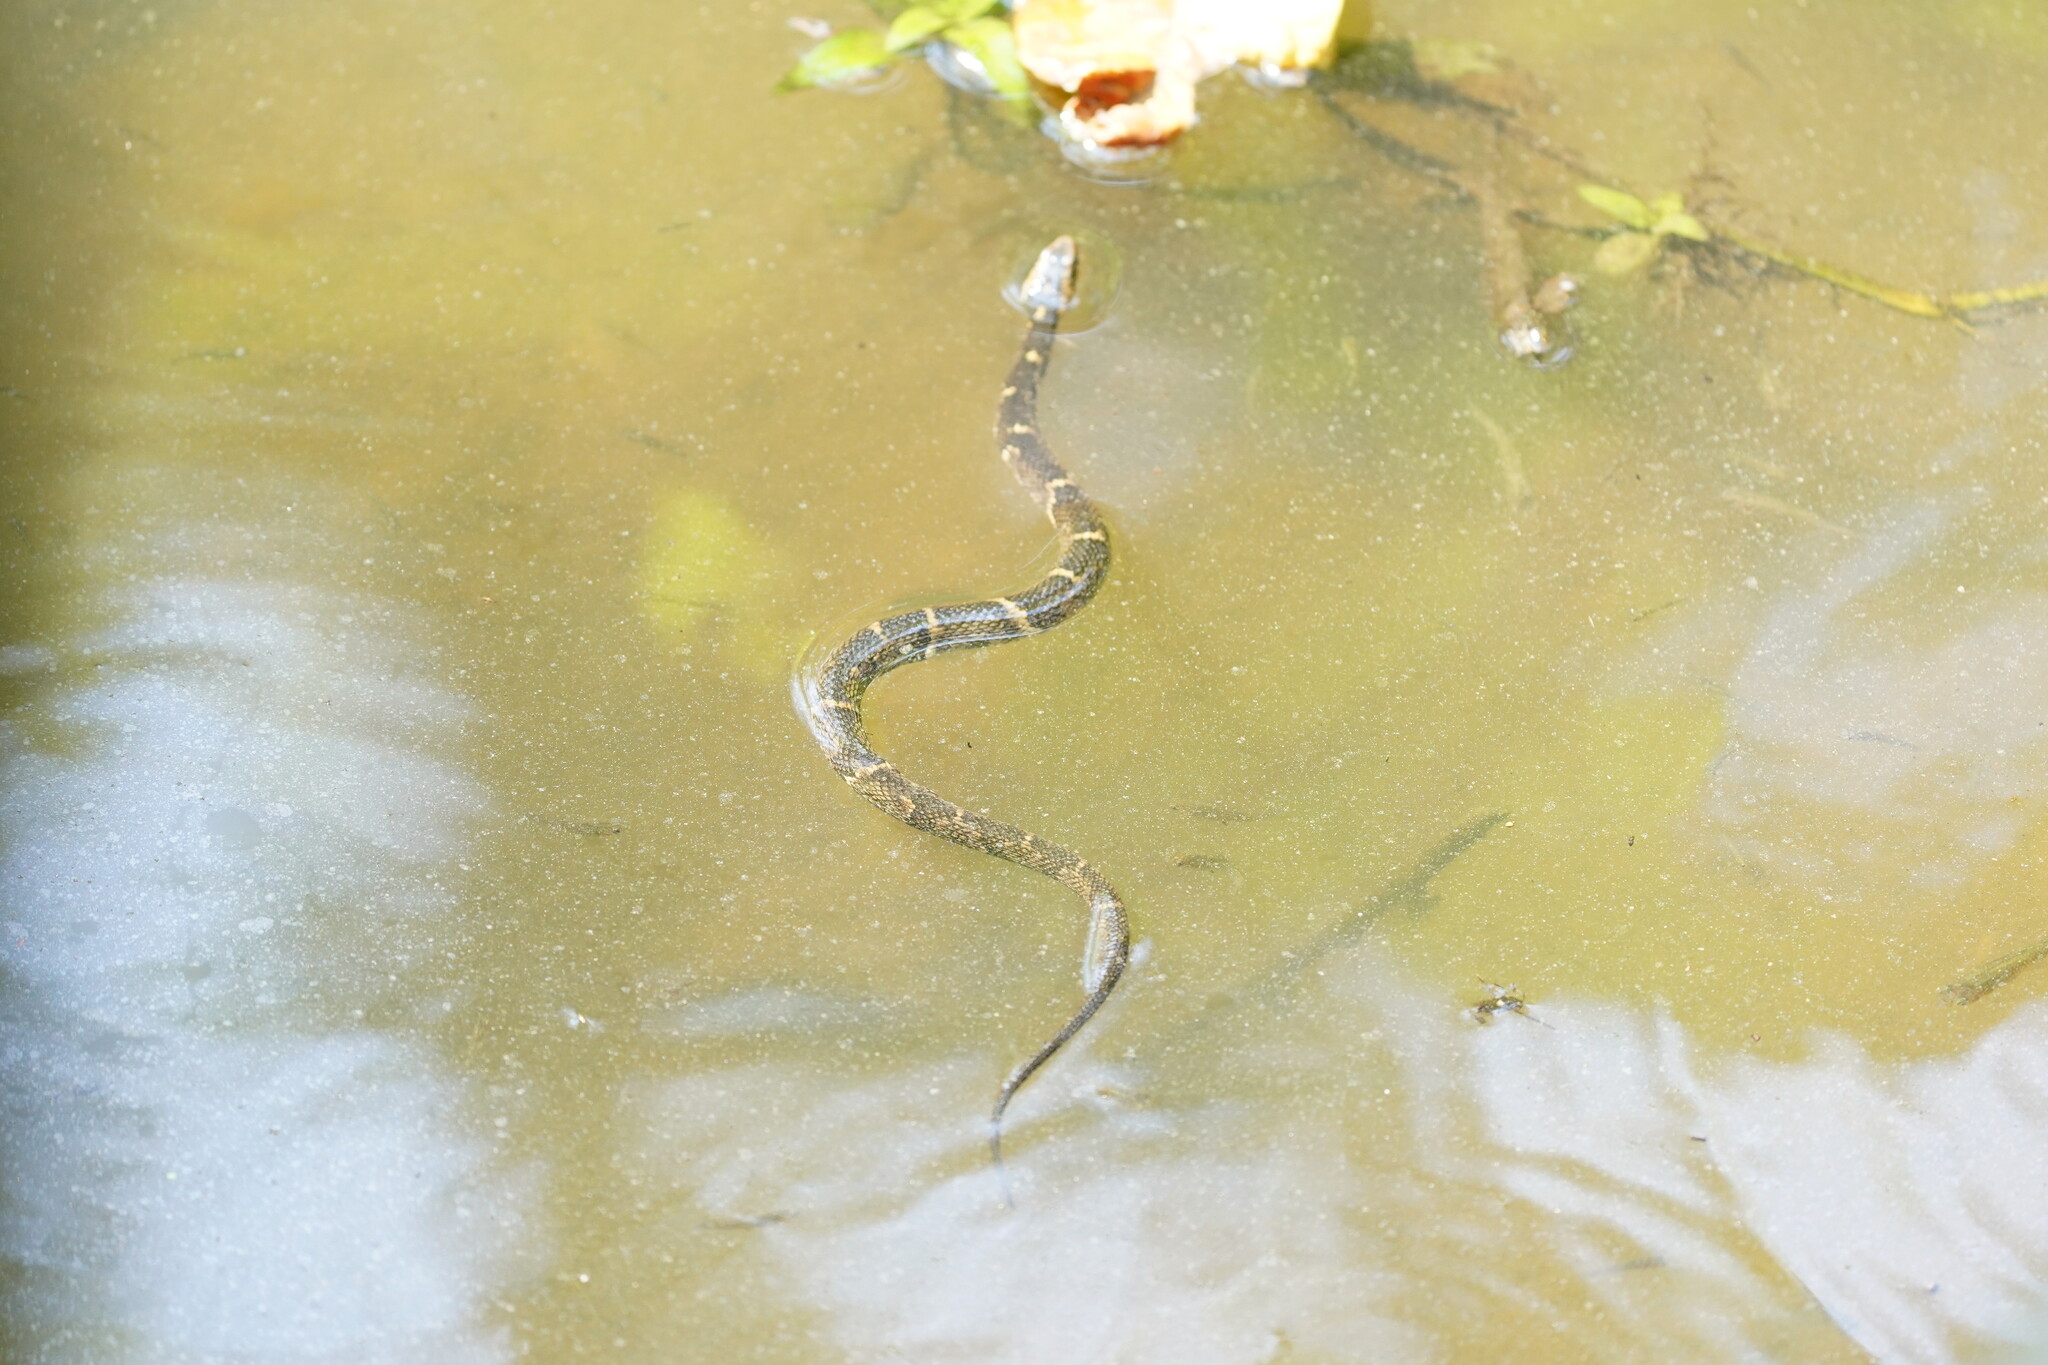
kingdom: Animalia
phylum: Chordata
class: Squamata
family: Colubridae
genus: Nerodia
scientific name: Nerodia fasciata
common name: Southern water snake
